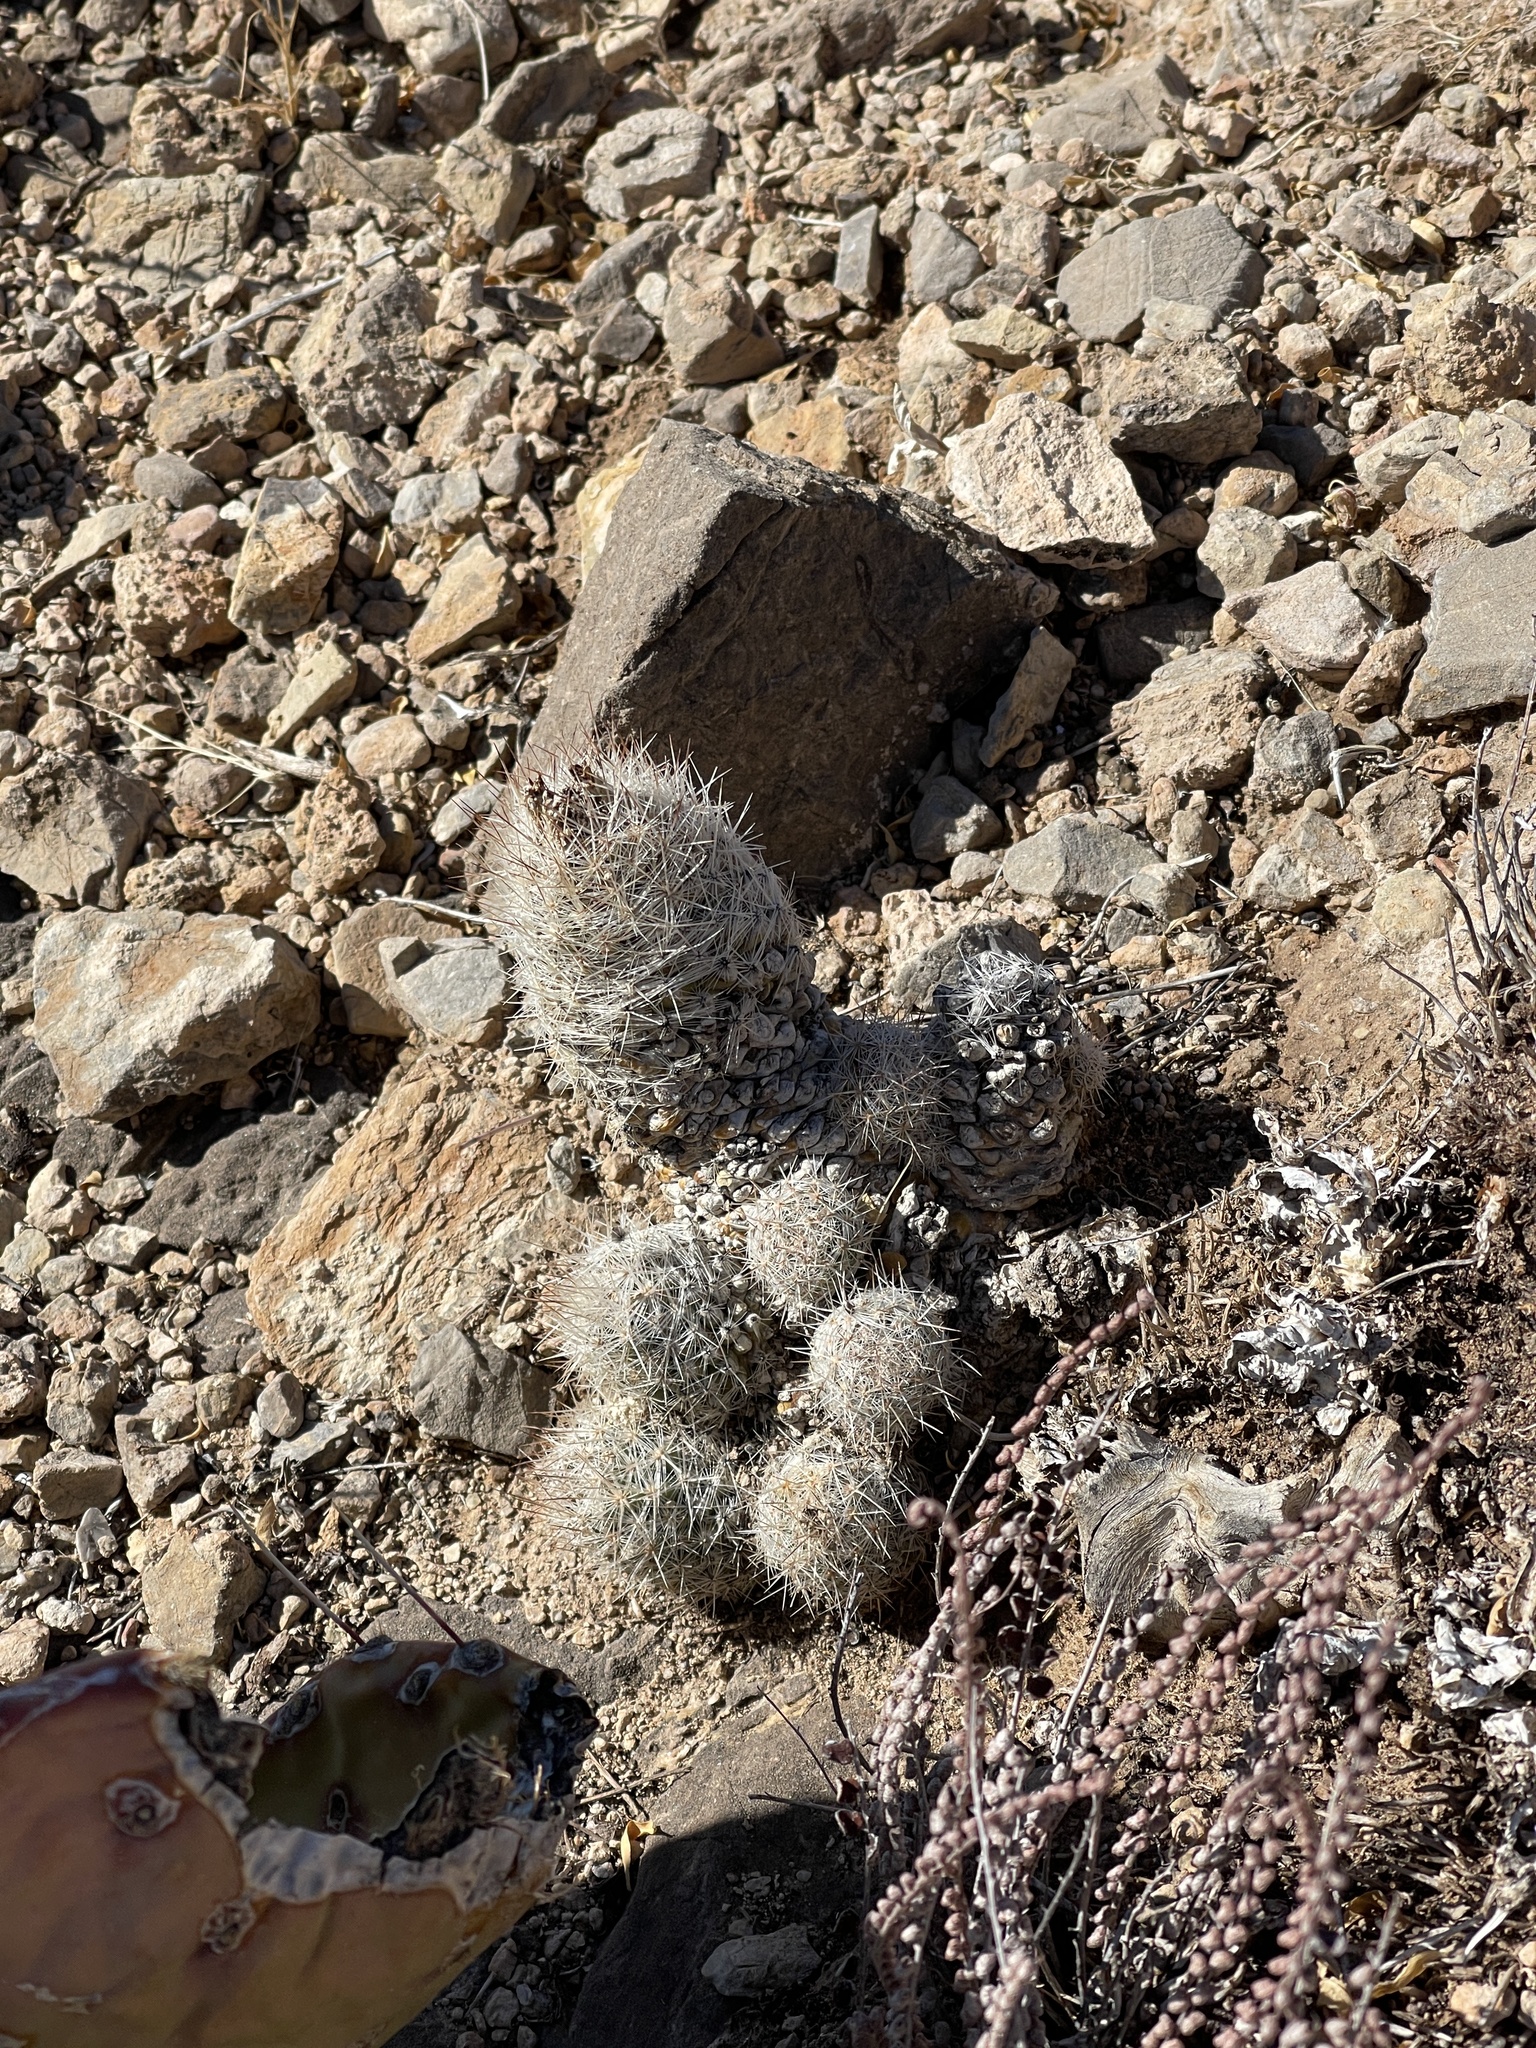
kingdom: Plantae
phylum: Tracheophyta
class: Magnoliopsida
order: Caryophyllales
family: Cactaceae
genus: Pelecyphora
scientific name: Pelecyphora tuberculosa
